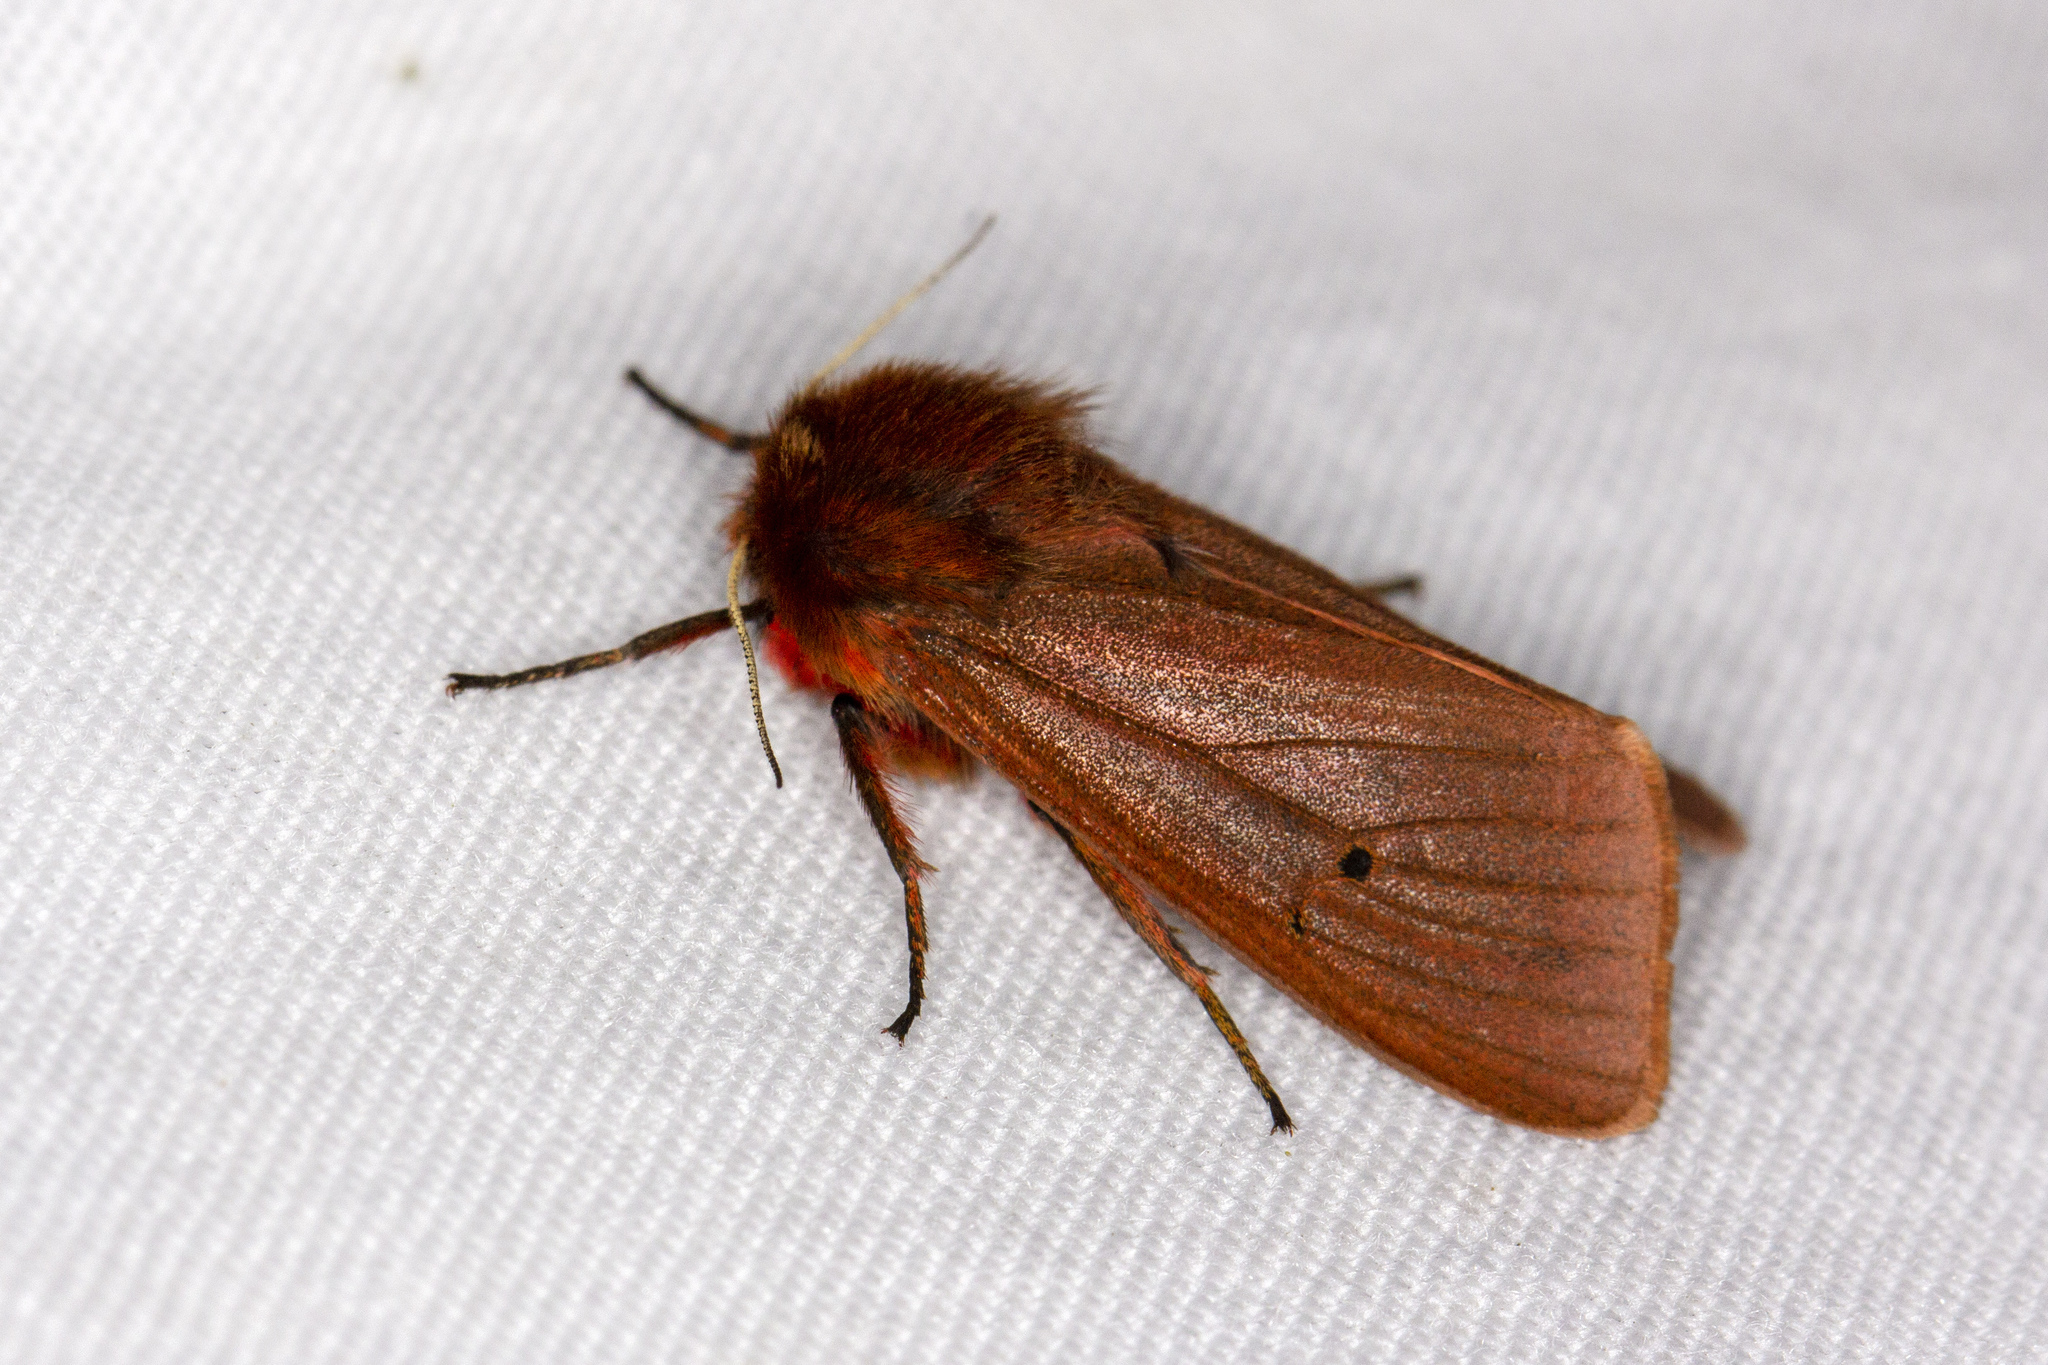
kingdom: Animalia
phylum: Arthropoda
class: Insecta
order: Lepidoptera
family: Erebidae
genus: Phragmatobia
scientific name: Phragmatobia fuliginosa
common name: Ruby tiger
